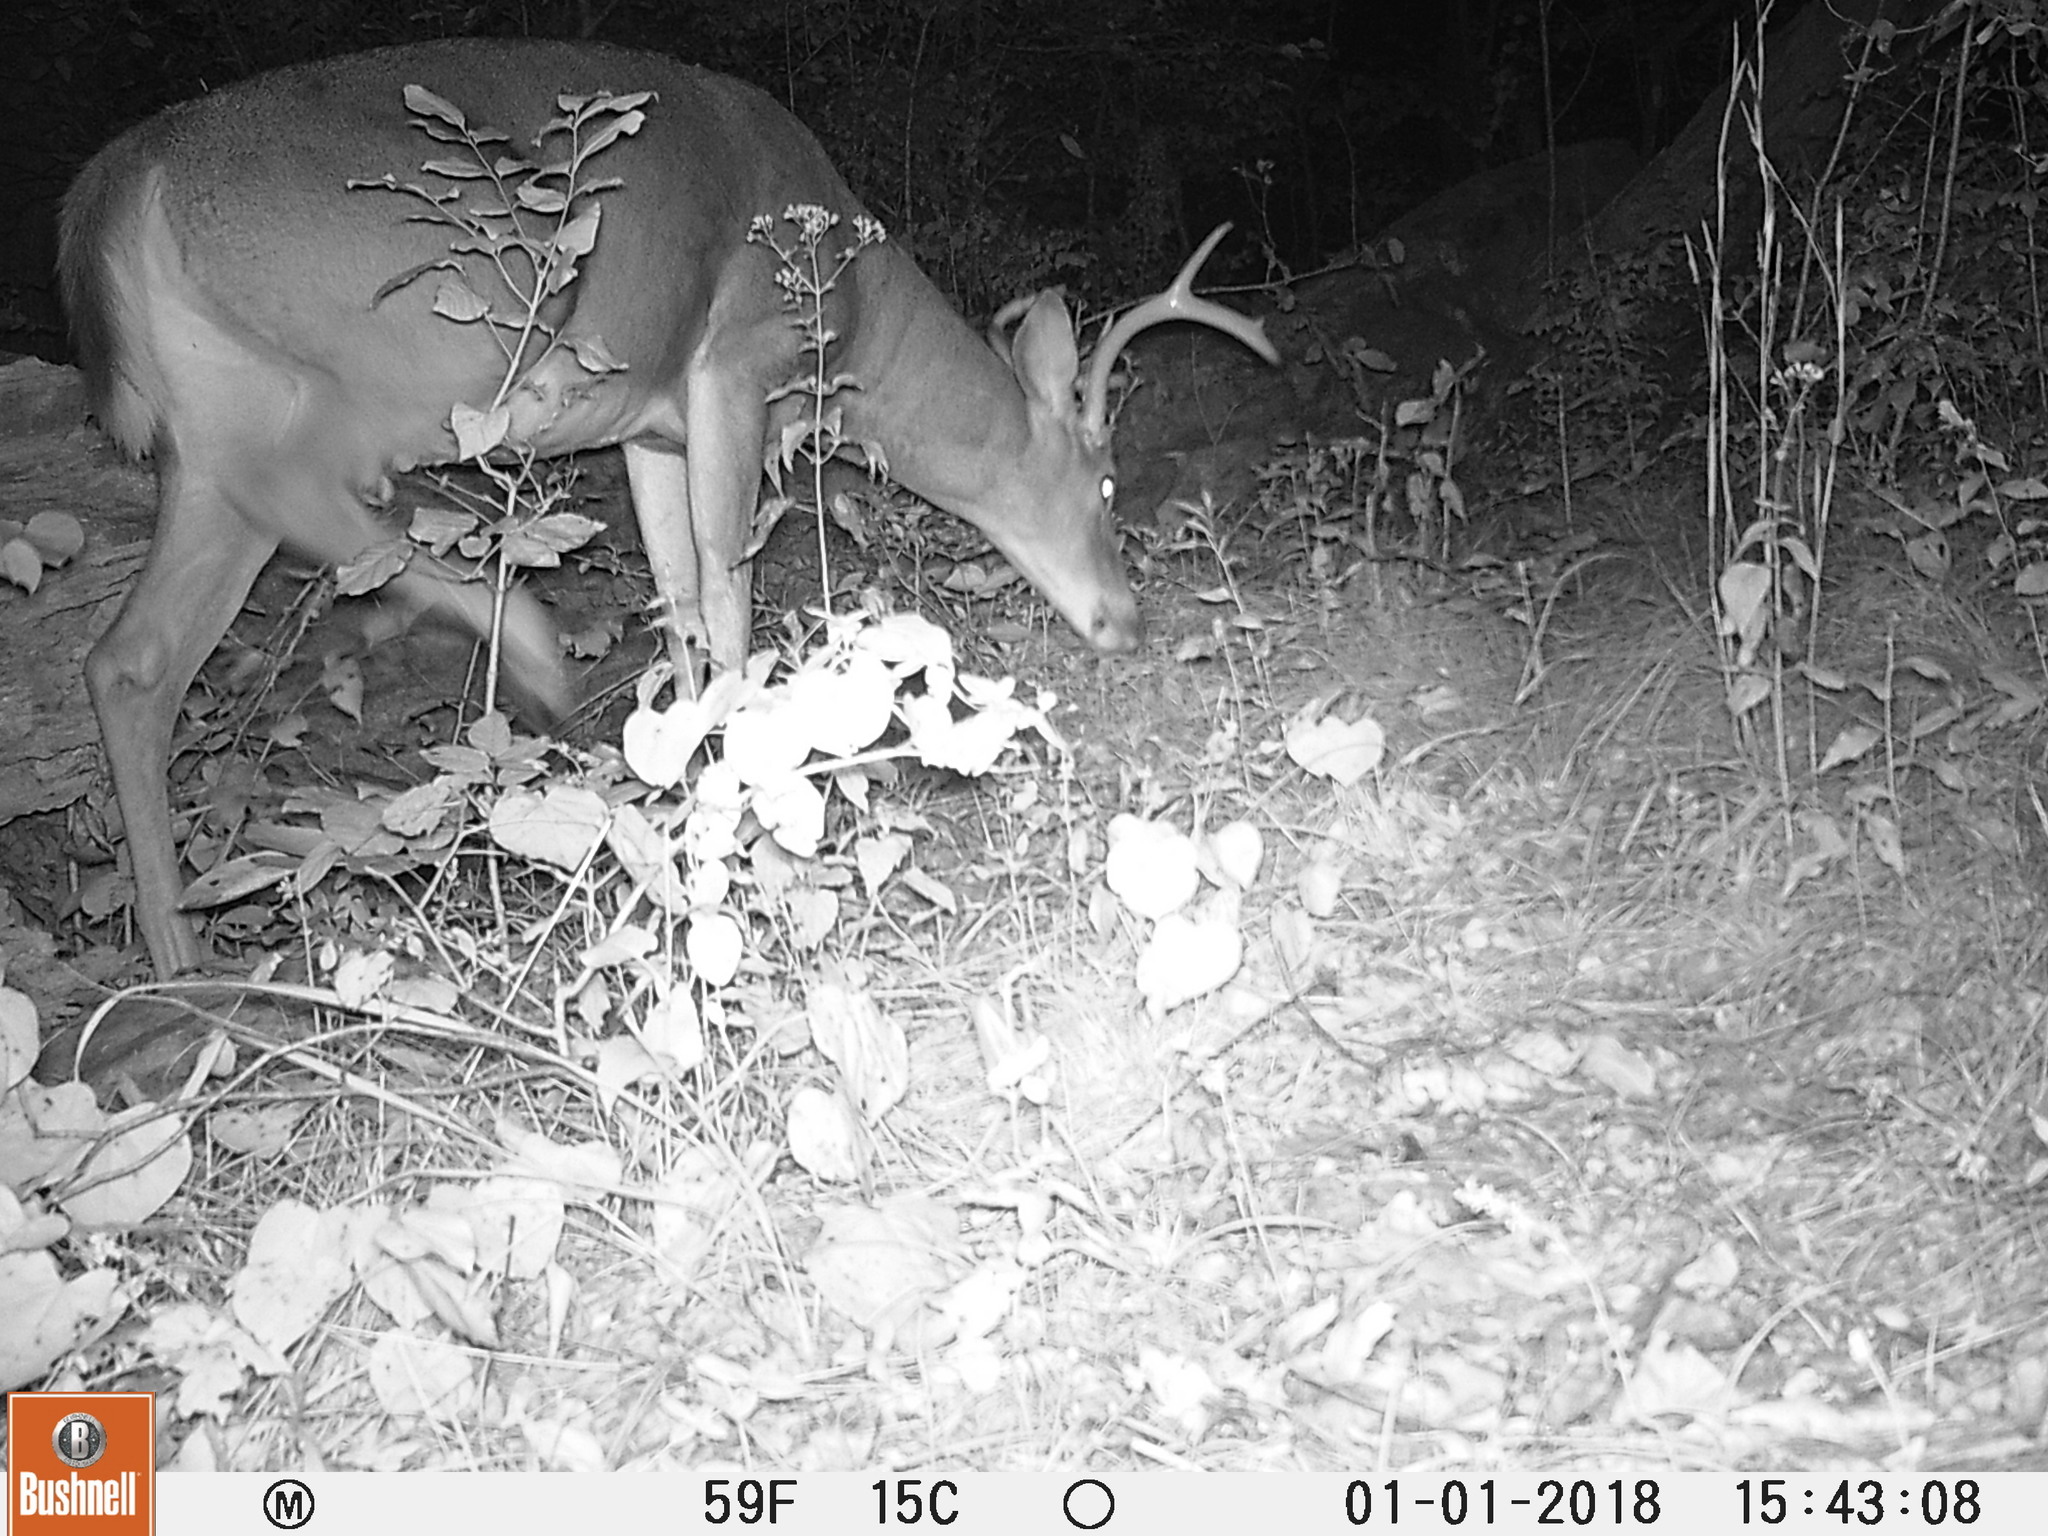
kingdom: Animalia
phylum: Chordata
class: Mammalia
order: Artiodactyla
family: Cervidae
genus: Odocoileus
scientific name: Odocoileus virginianus
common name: White-tailed deer
